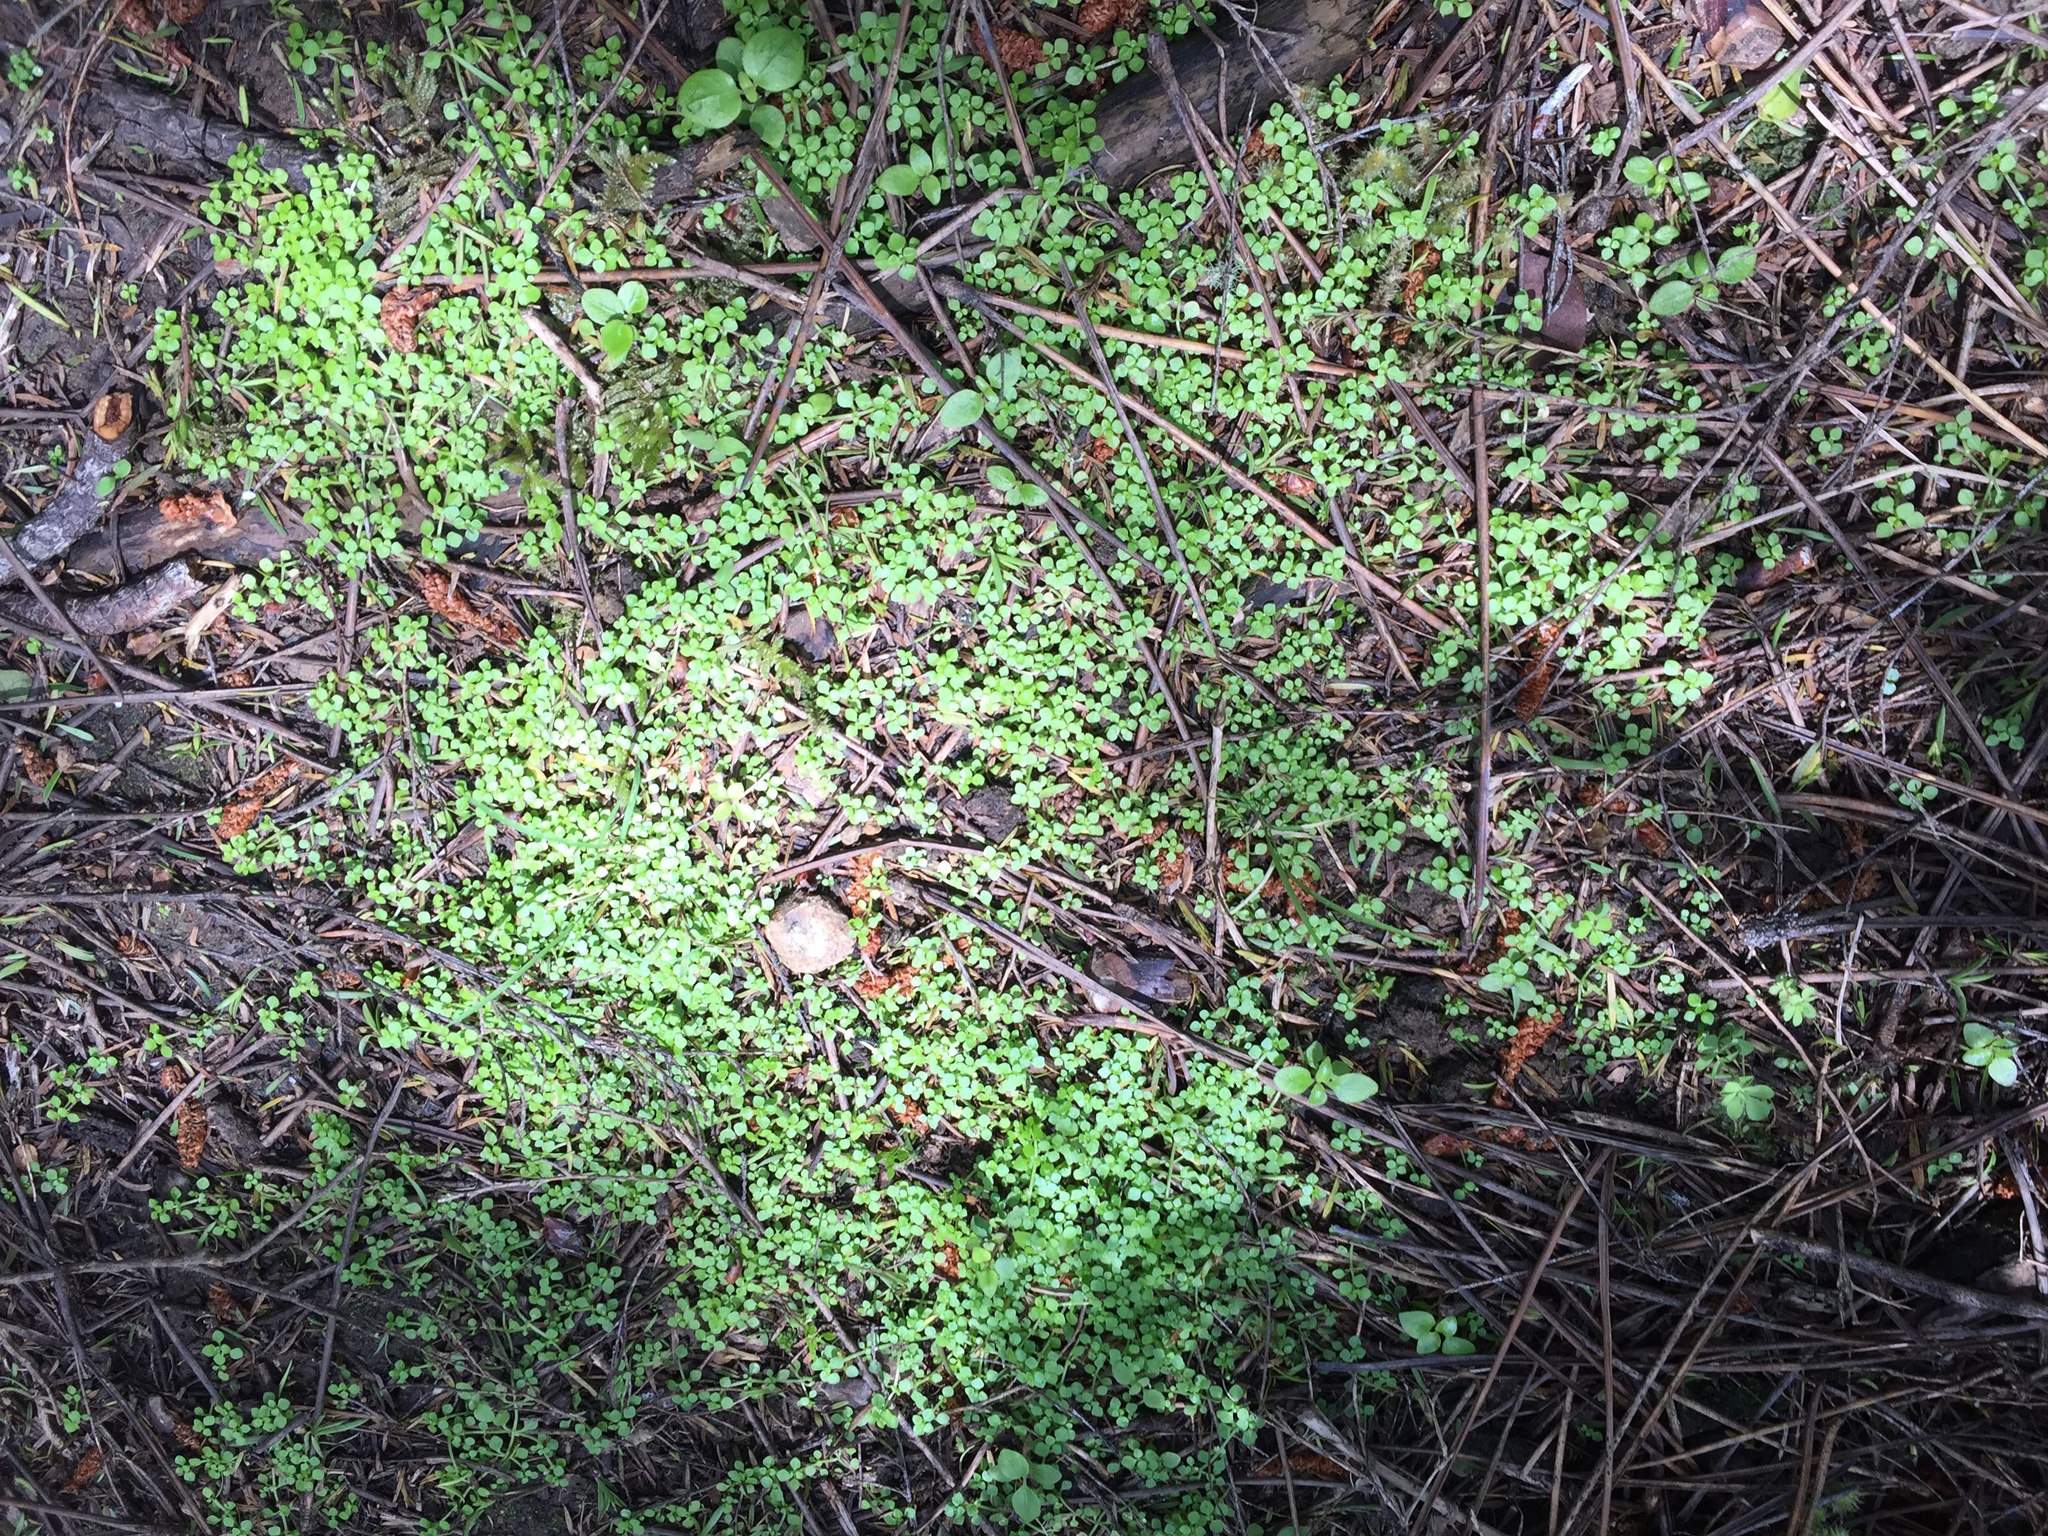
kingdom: Plantae
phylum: Tracheophyta
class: Magnoliopsida
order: Lamiales
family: Plantaginaceae
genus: Callitriche
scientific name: Callitriche muelleri
